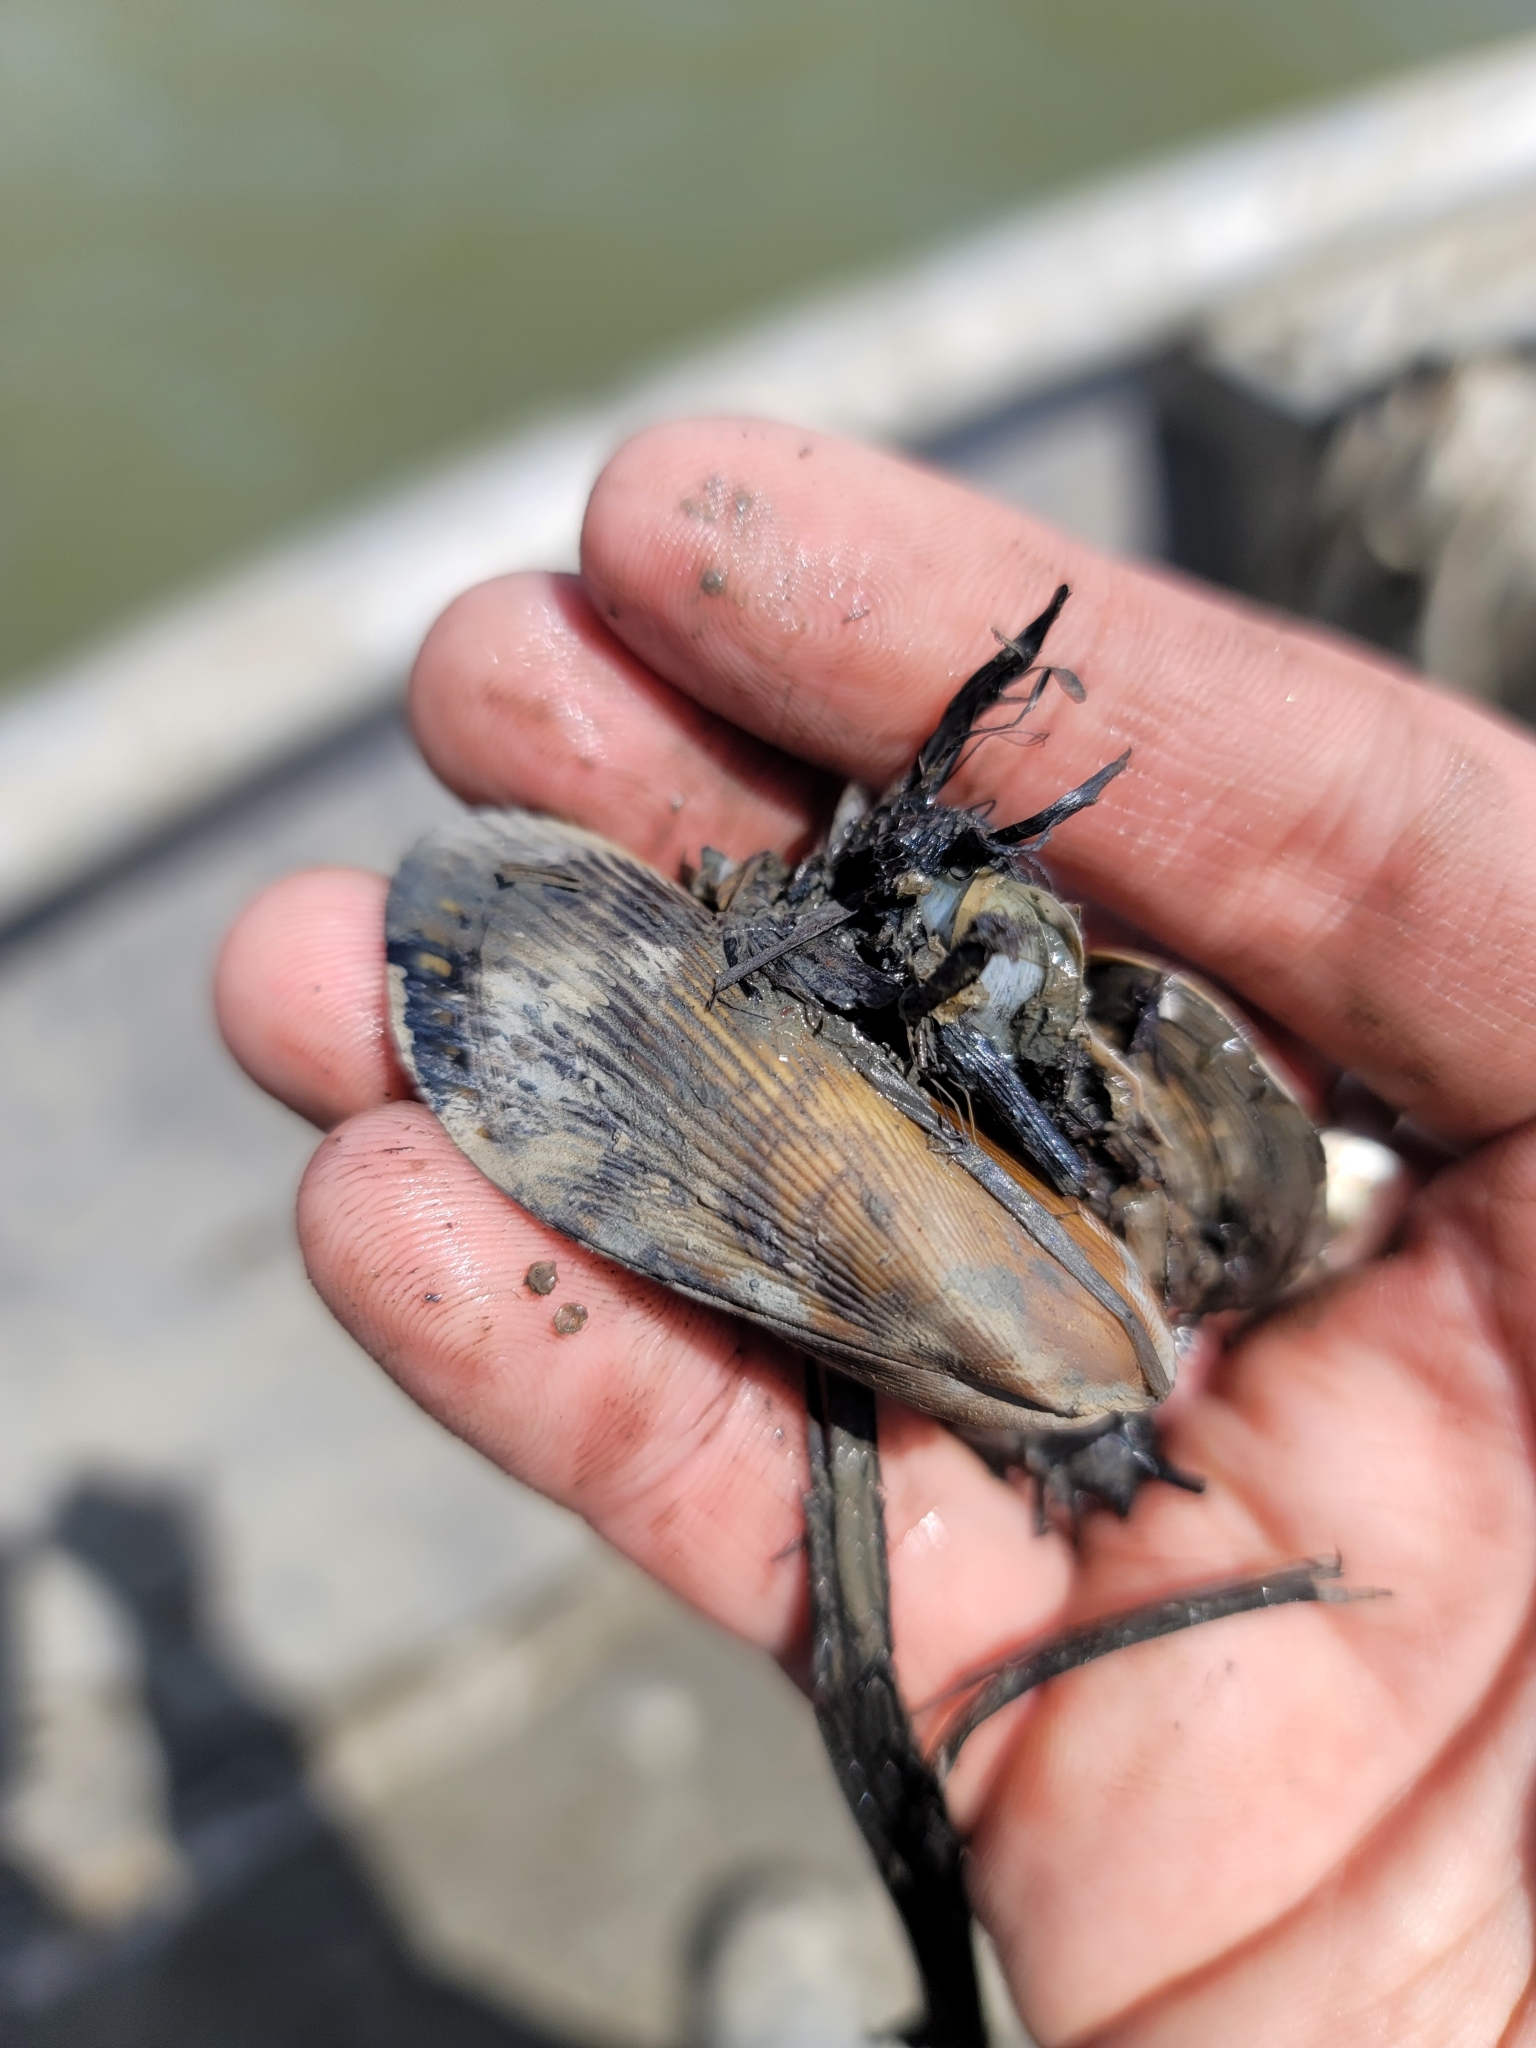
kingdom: Animalia
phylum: Mollusca
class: Bivalvia
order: Mytilida
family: Mytilidae
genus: Geukensia
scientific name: Geukensia demissa
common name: Ribbed mussel
